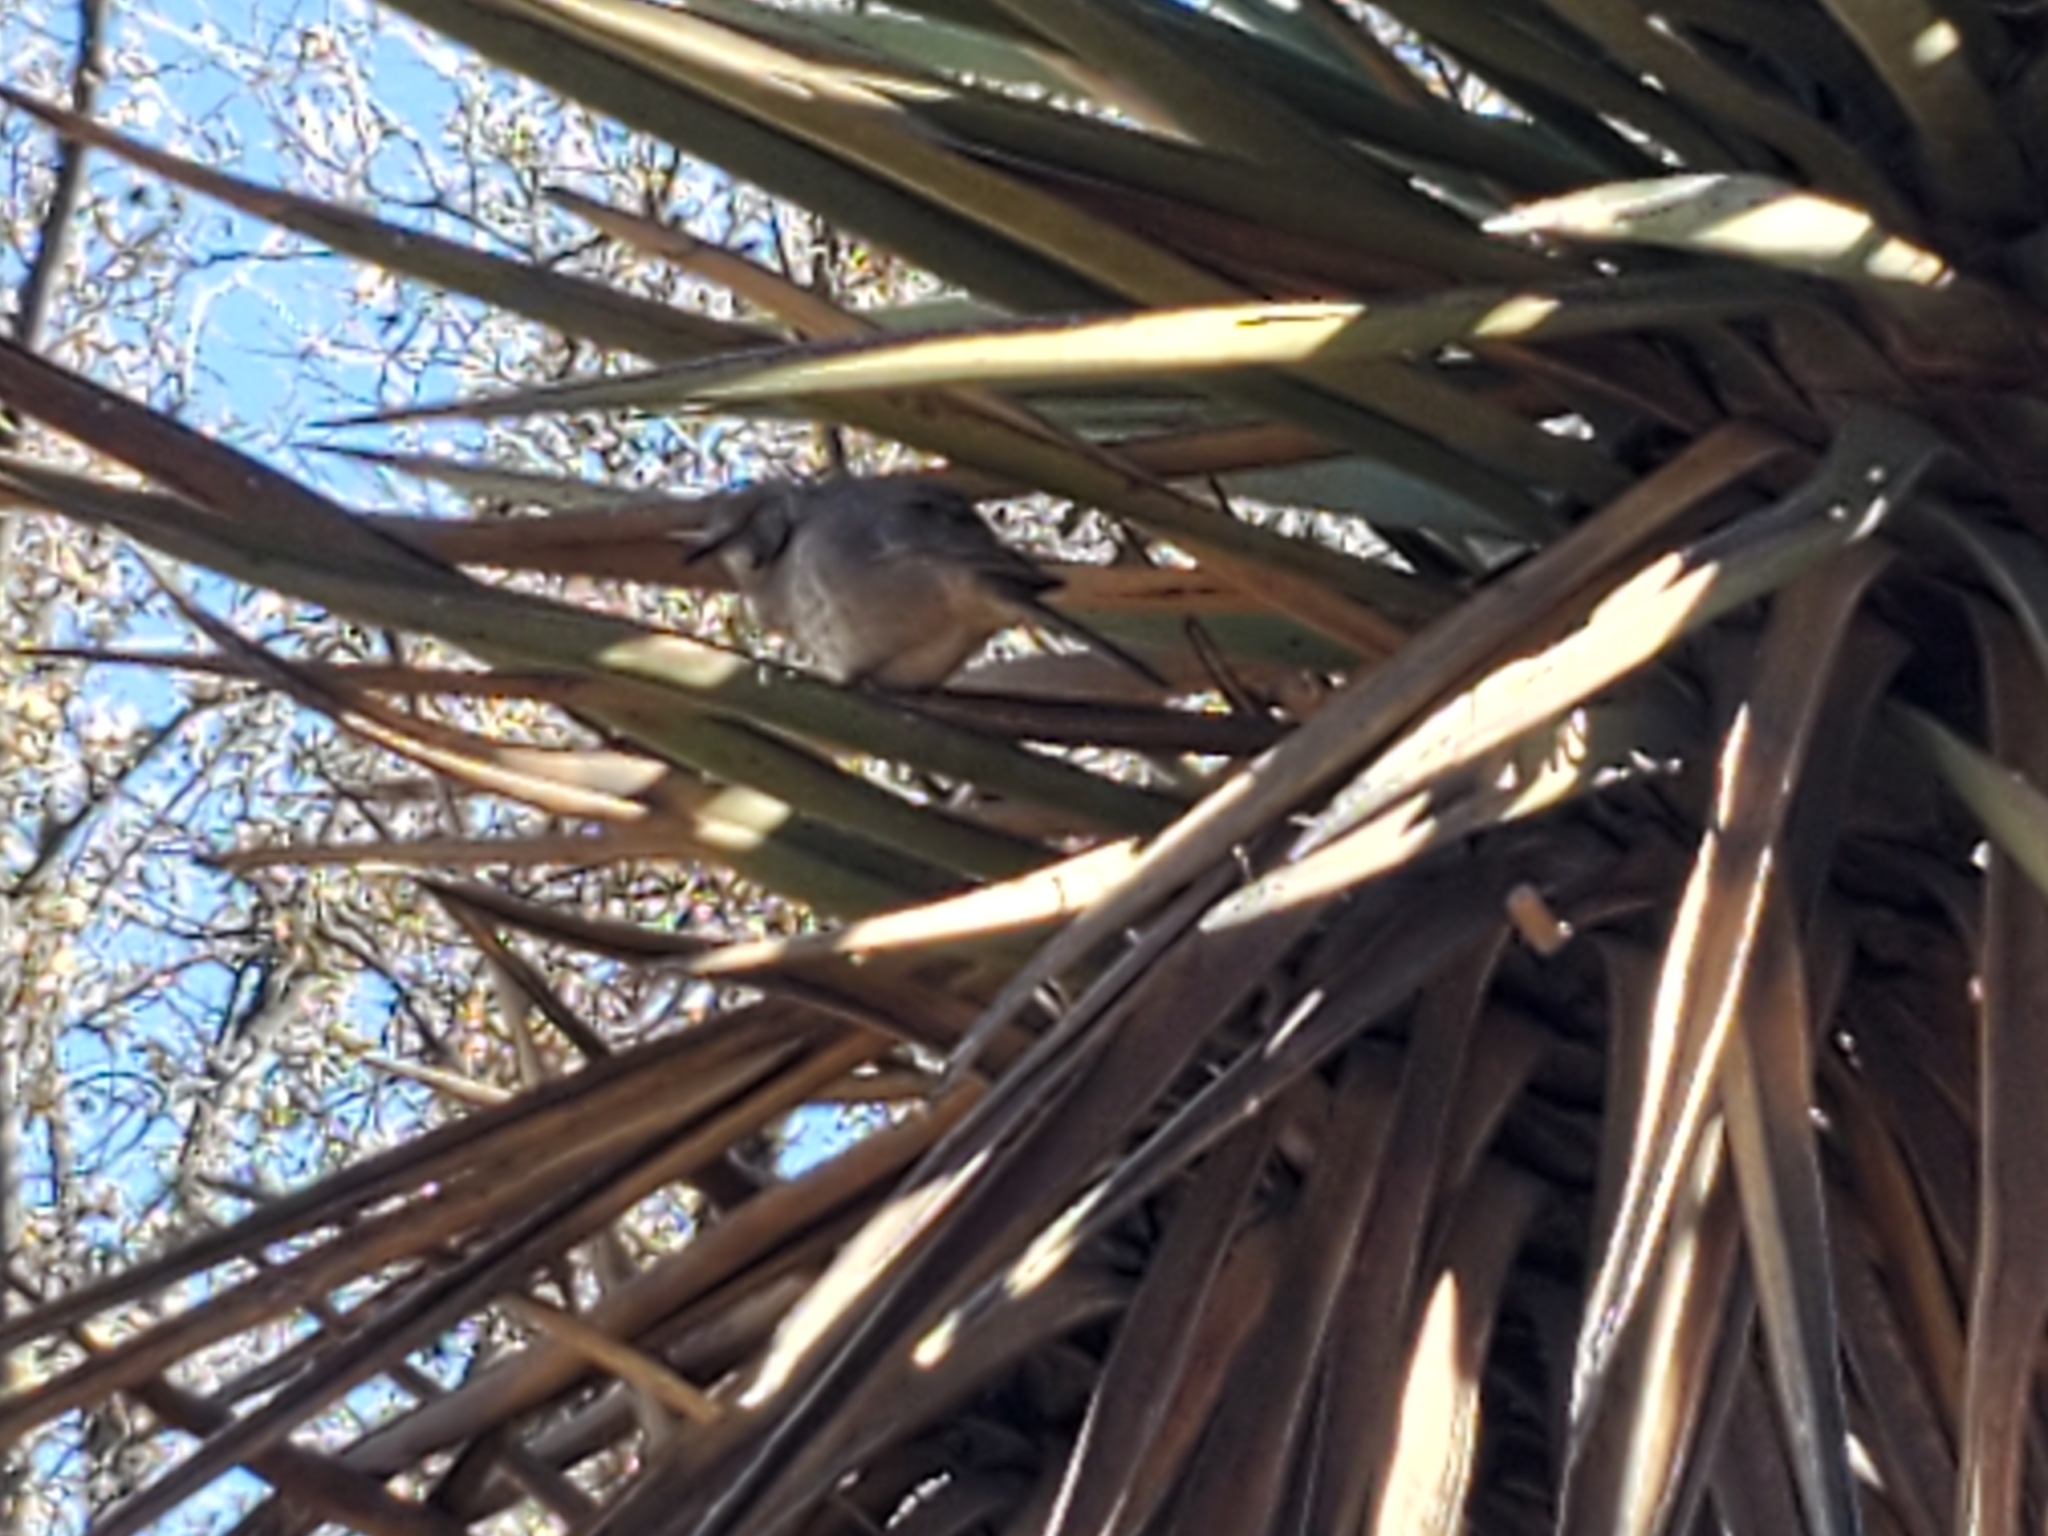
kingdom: Animalia
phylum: Chordata
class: Aves
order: Passeriformes
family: Mimidae
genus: Toxostoma
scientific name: Toxostoma curvirostre
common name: Curve-billed thrasher
